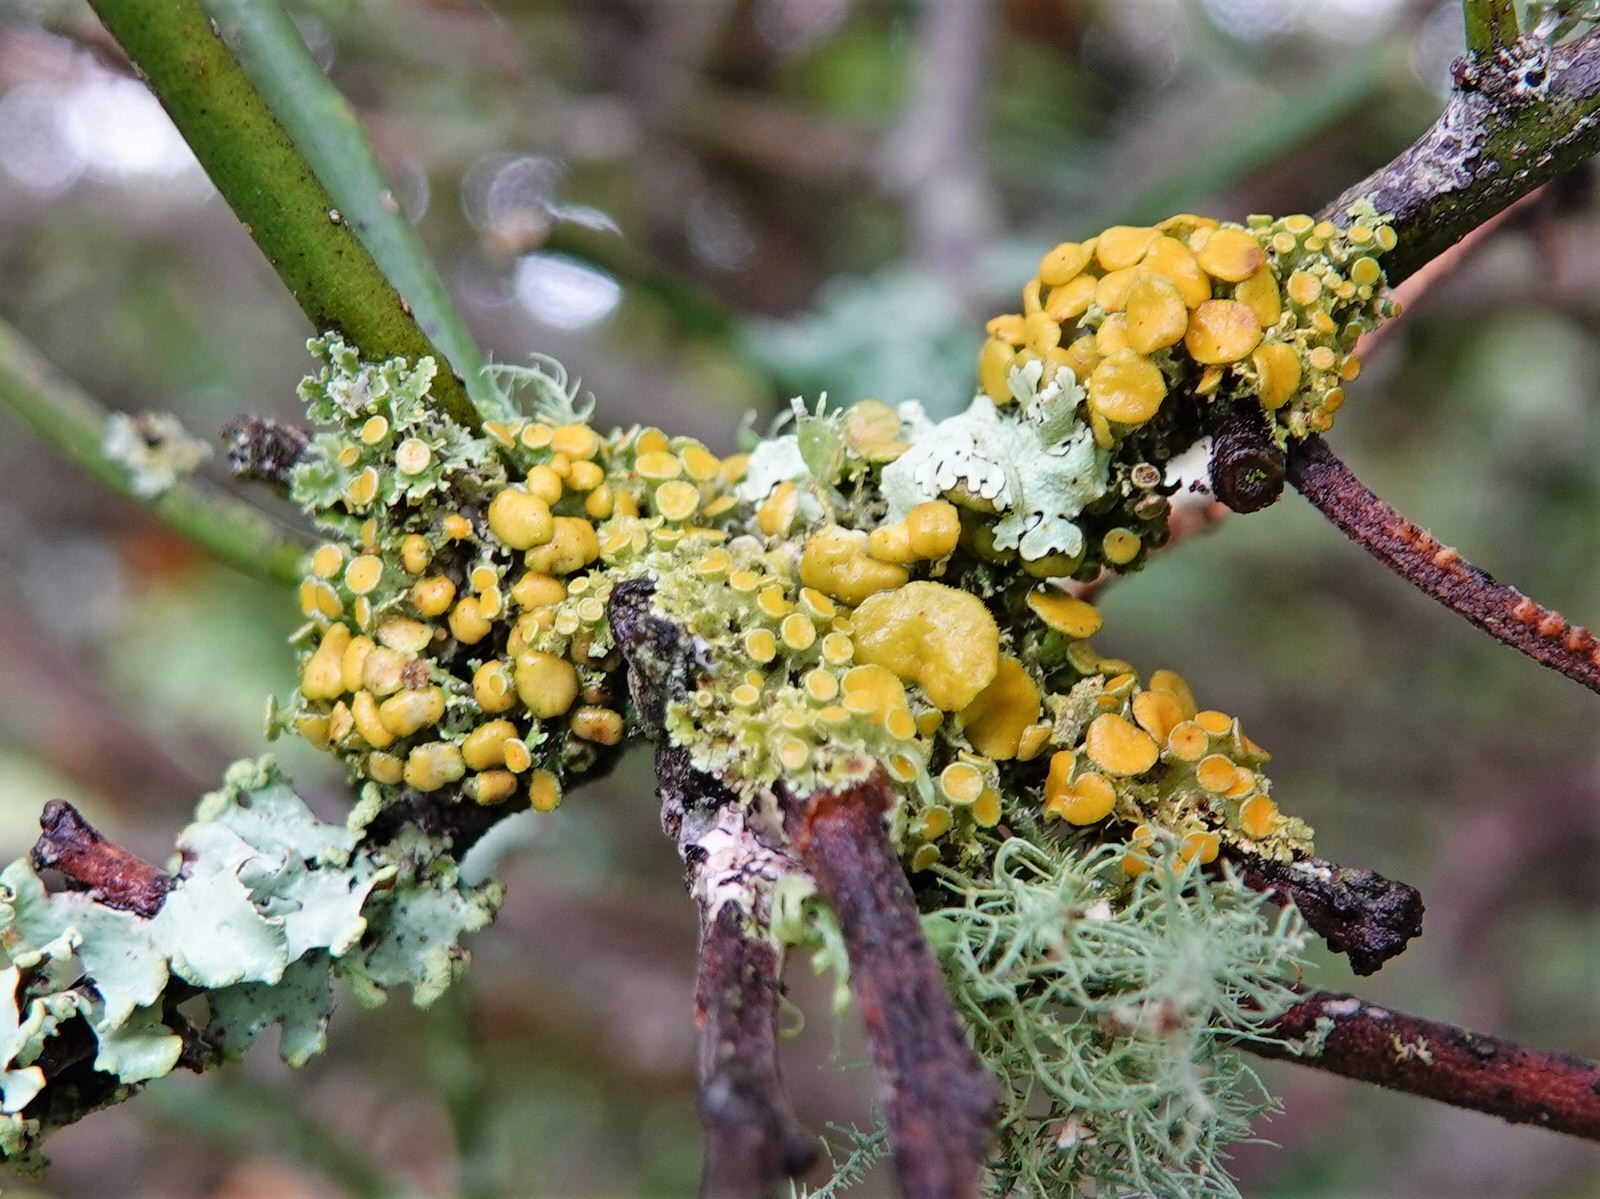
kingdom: Fungi
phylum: Ascomycota
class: Lecanoromycetes
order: Teloschistales
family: Teloschistaceae
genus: Teloschistes
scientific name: Teloschistes sieberianus
